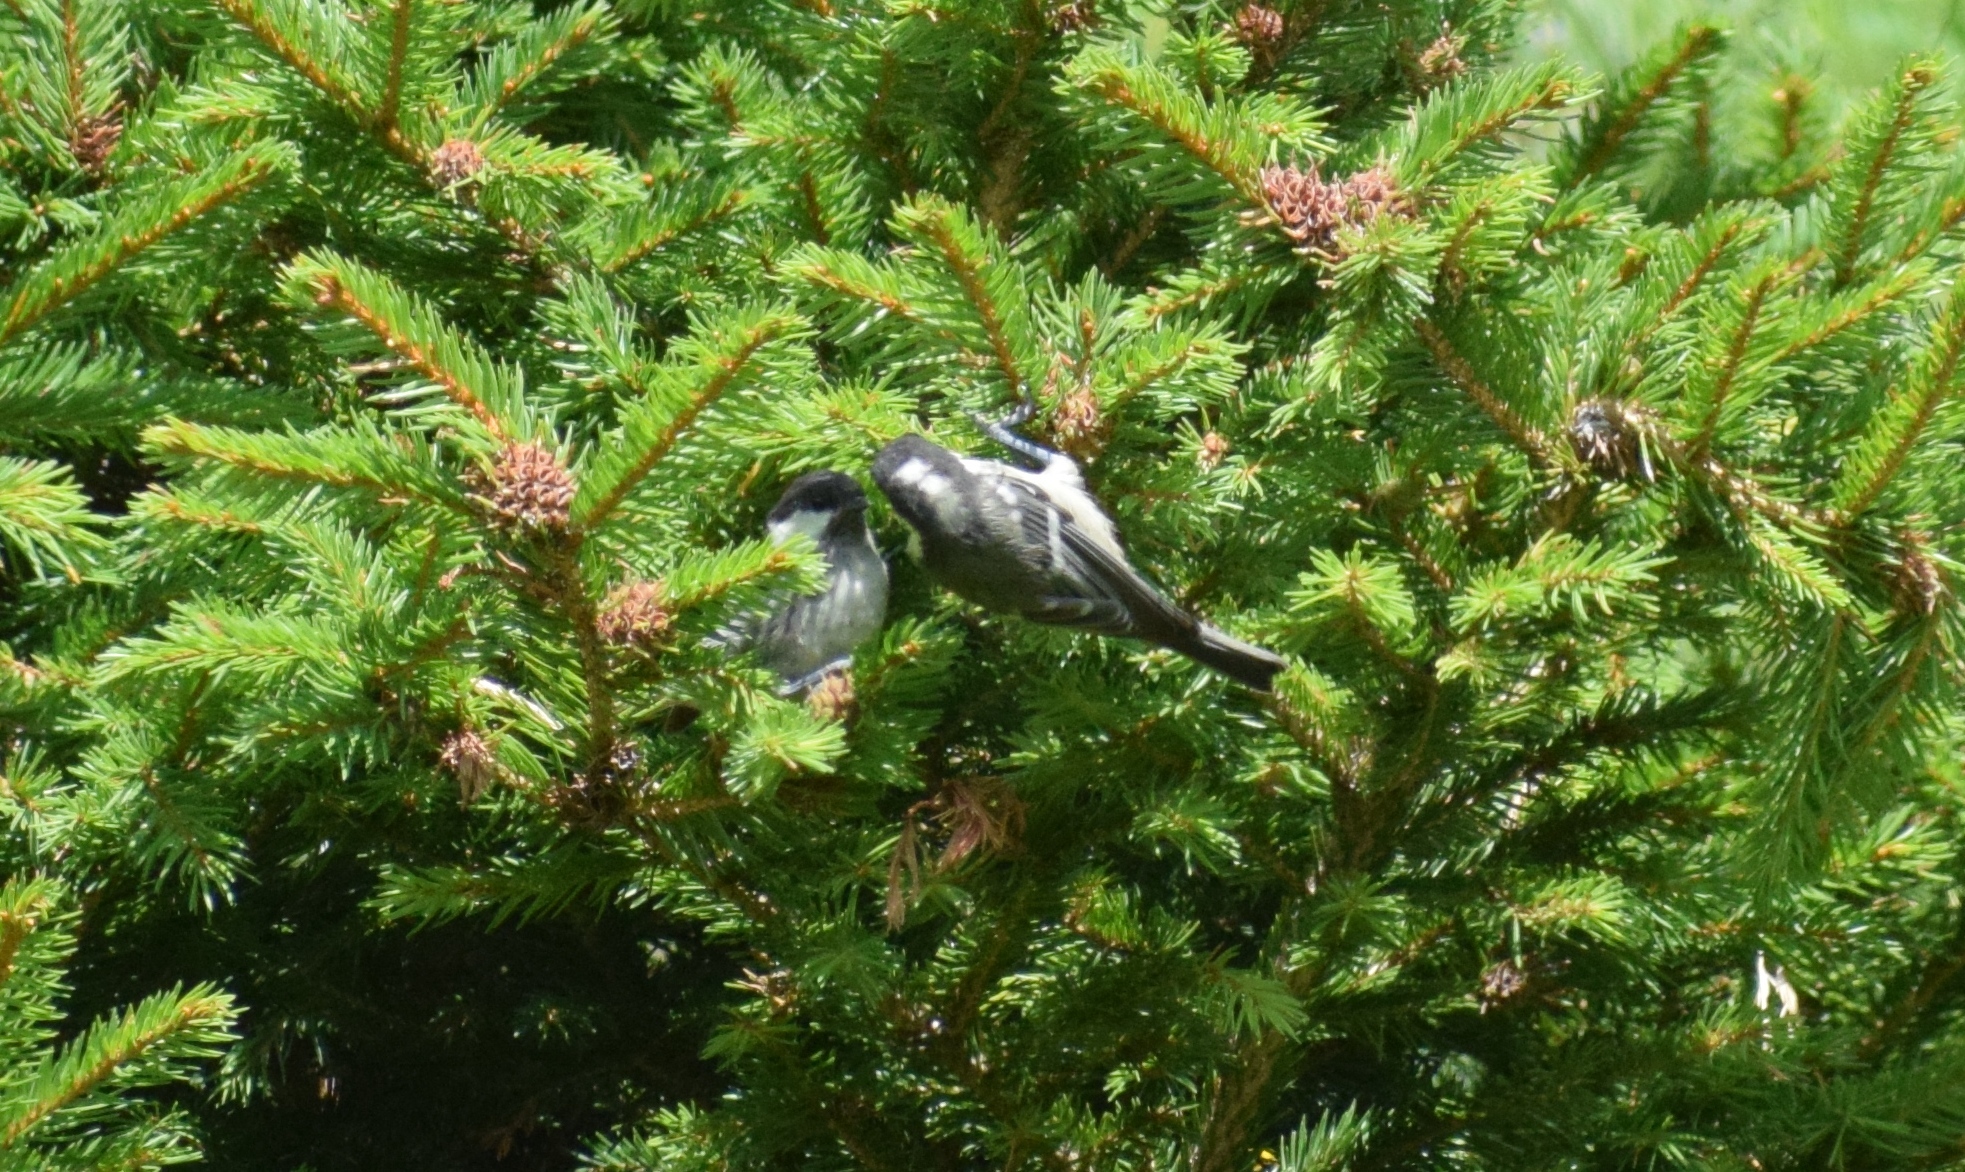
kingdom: Animalia
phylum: Chordata
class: Aves
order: Passeriformes
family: Paridae
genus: Periparus
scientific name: Periparus ater
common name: Coal tit
